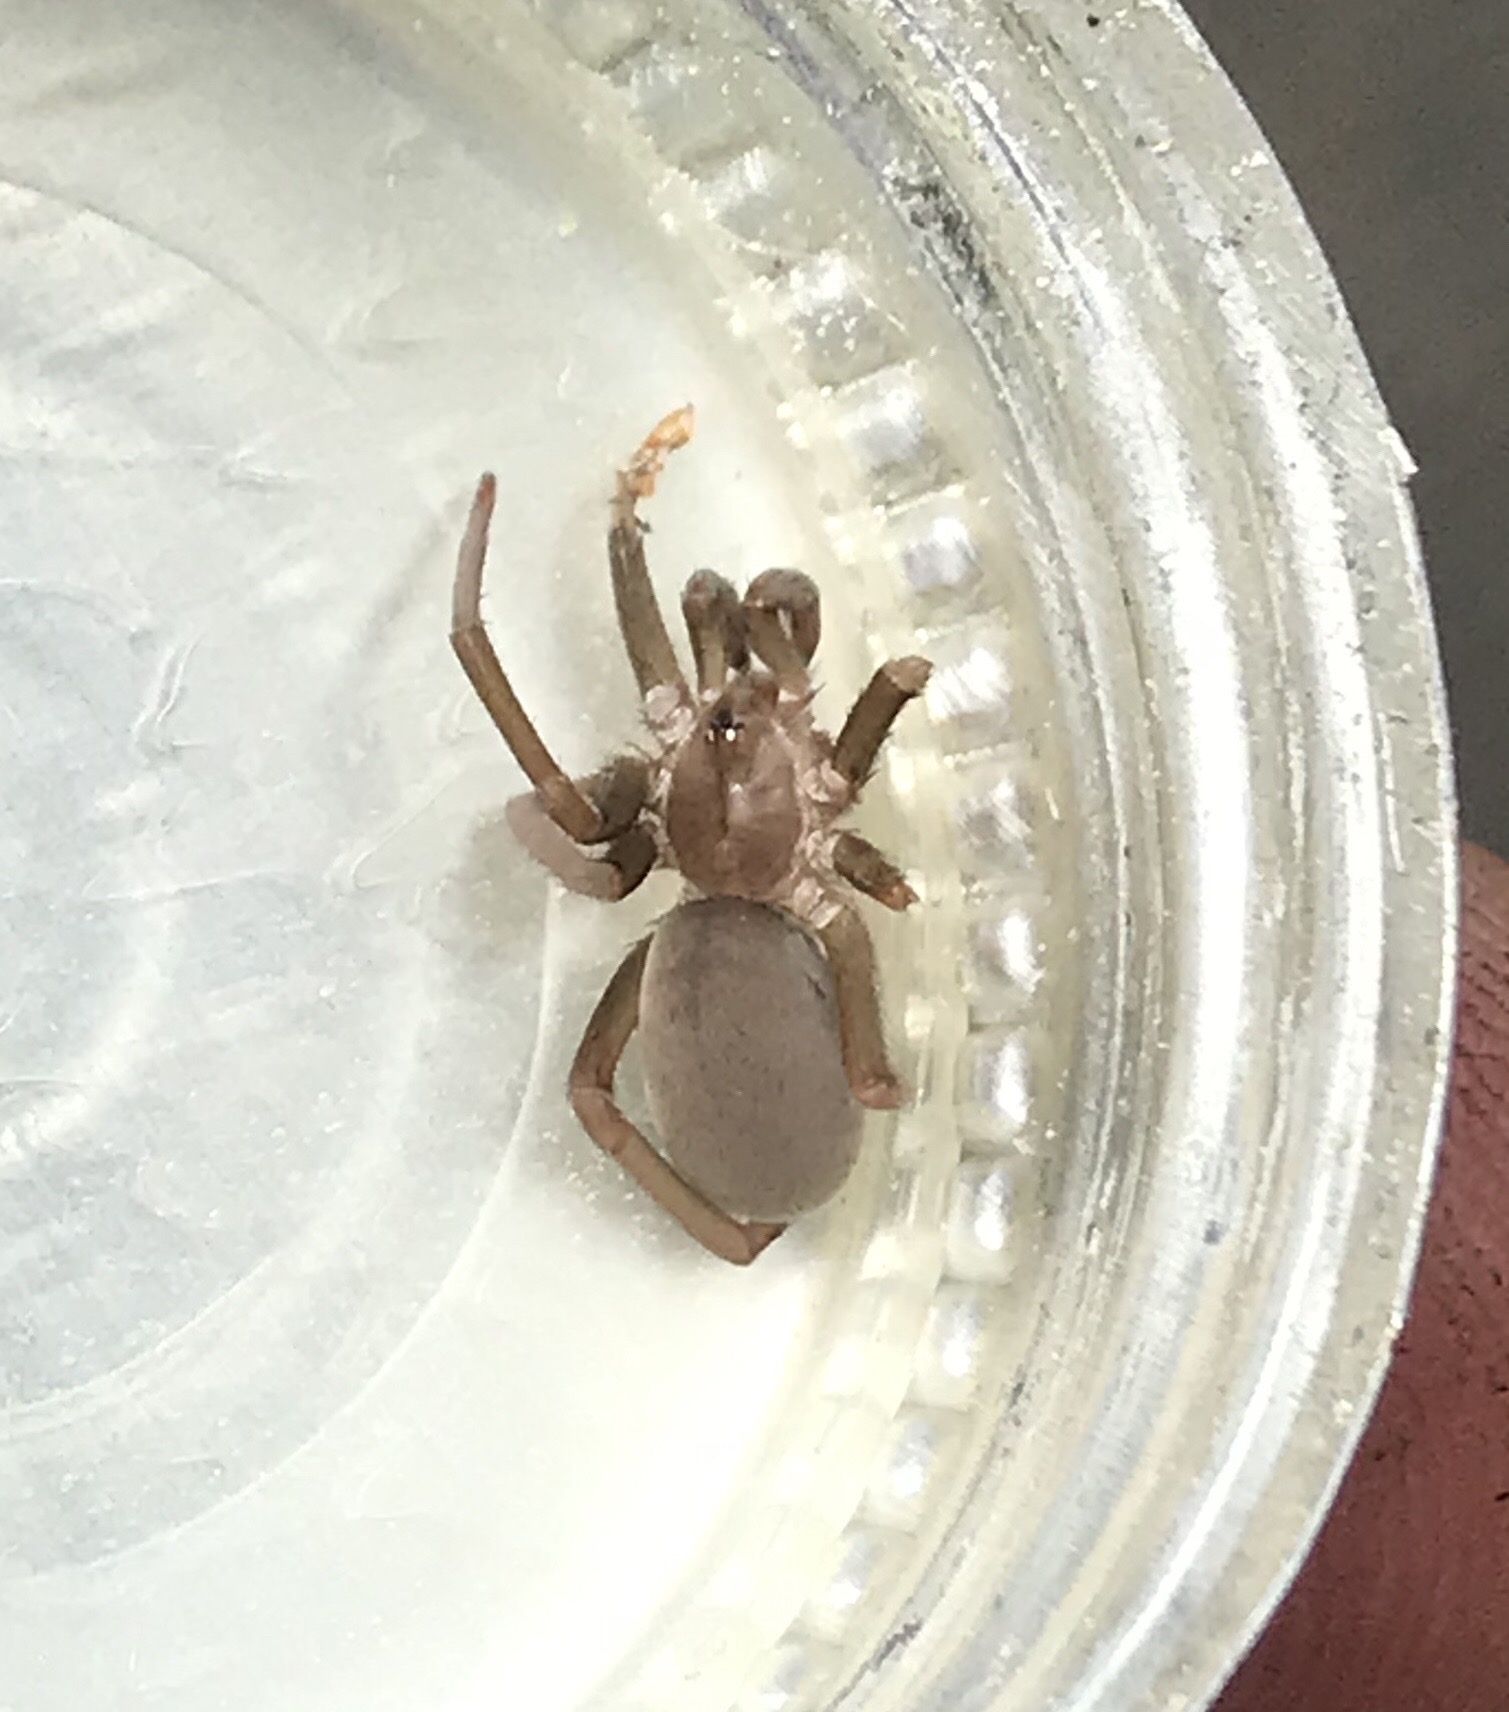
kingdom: Animalia
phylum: Arthropoda
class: Arachnida
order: Araneae
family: Filistatidae
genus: Kukulcania
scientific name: Kukulcania hibernalis
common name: Crevice weaver
